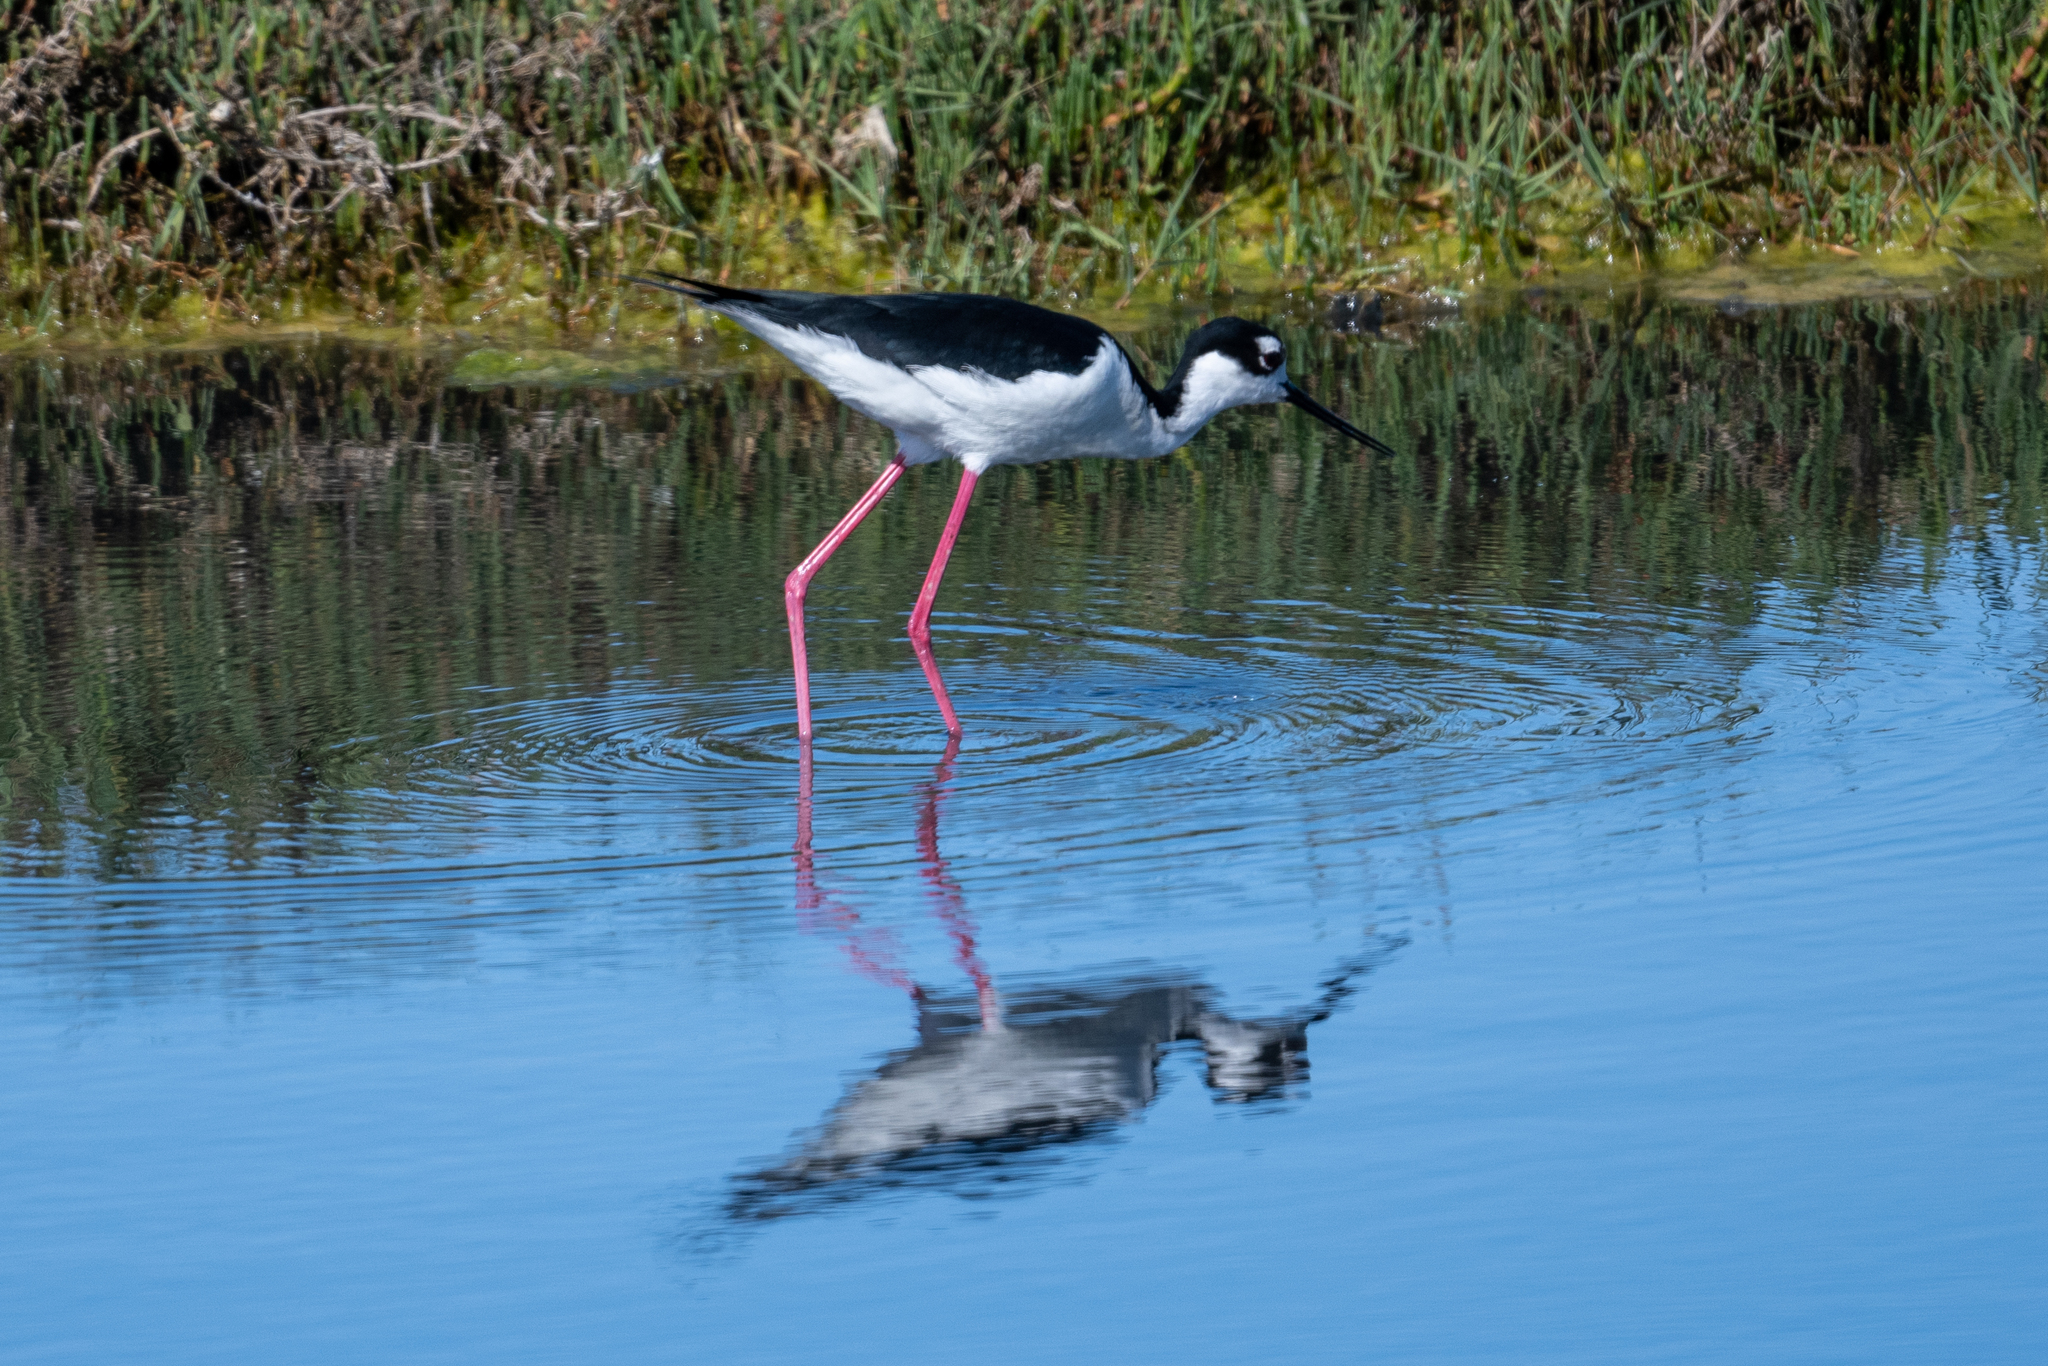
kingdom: Animalia
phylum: Chordata
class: Aves
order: Charadriiformes
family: Recurvirostridae
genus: Himantopus
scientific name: Himantopus mexicanus
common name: Black-necked stilt
